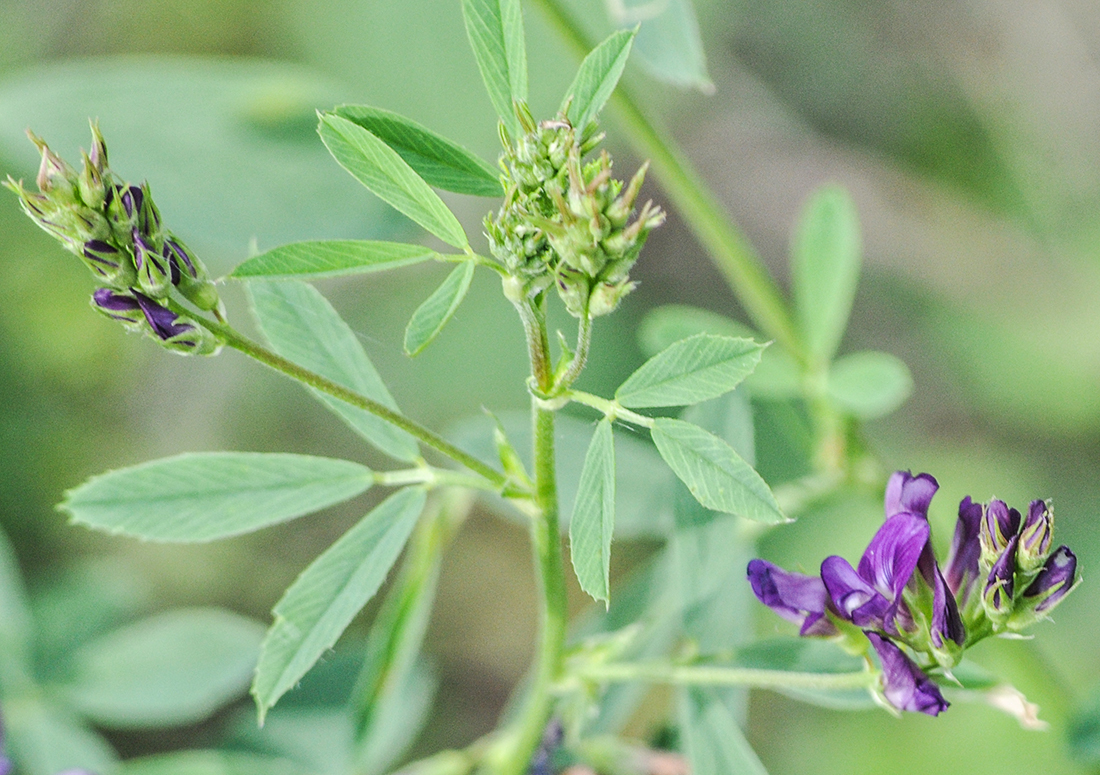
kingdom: Plantae
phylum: Tracheophyta
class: Magnoliopsida
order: Fabales
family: Fabaceae
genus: Medicago
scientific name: Medicago sativa
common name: Alfalfa
